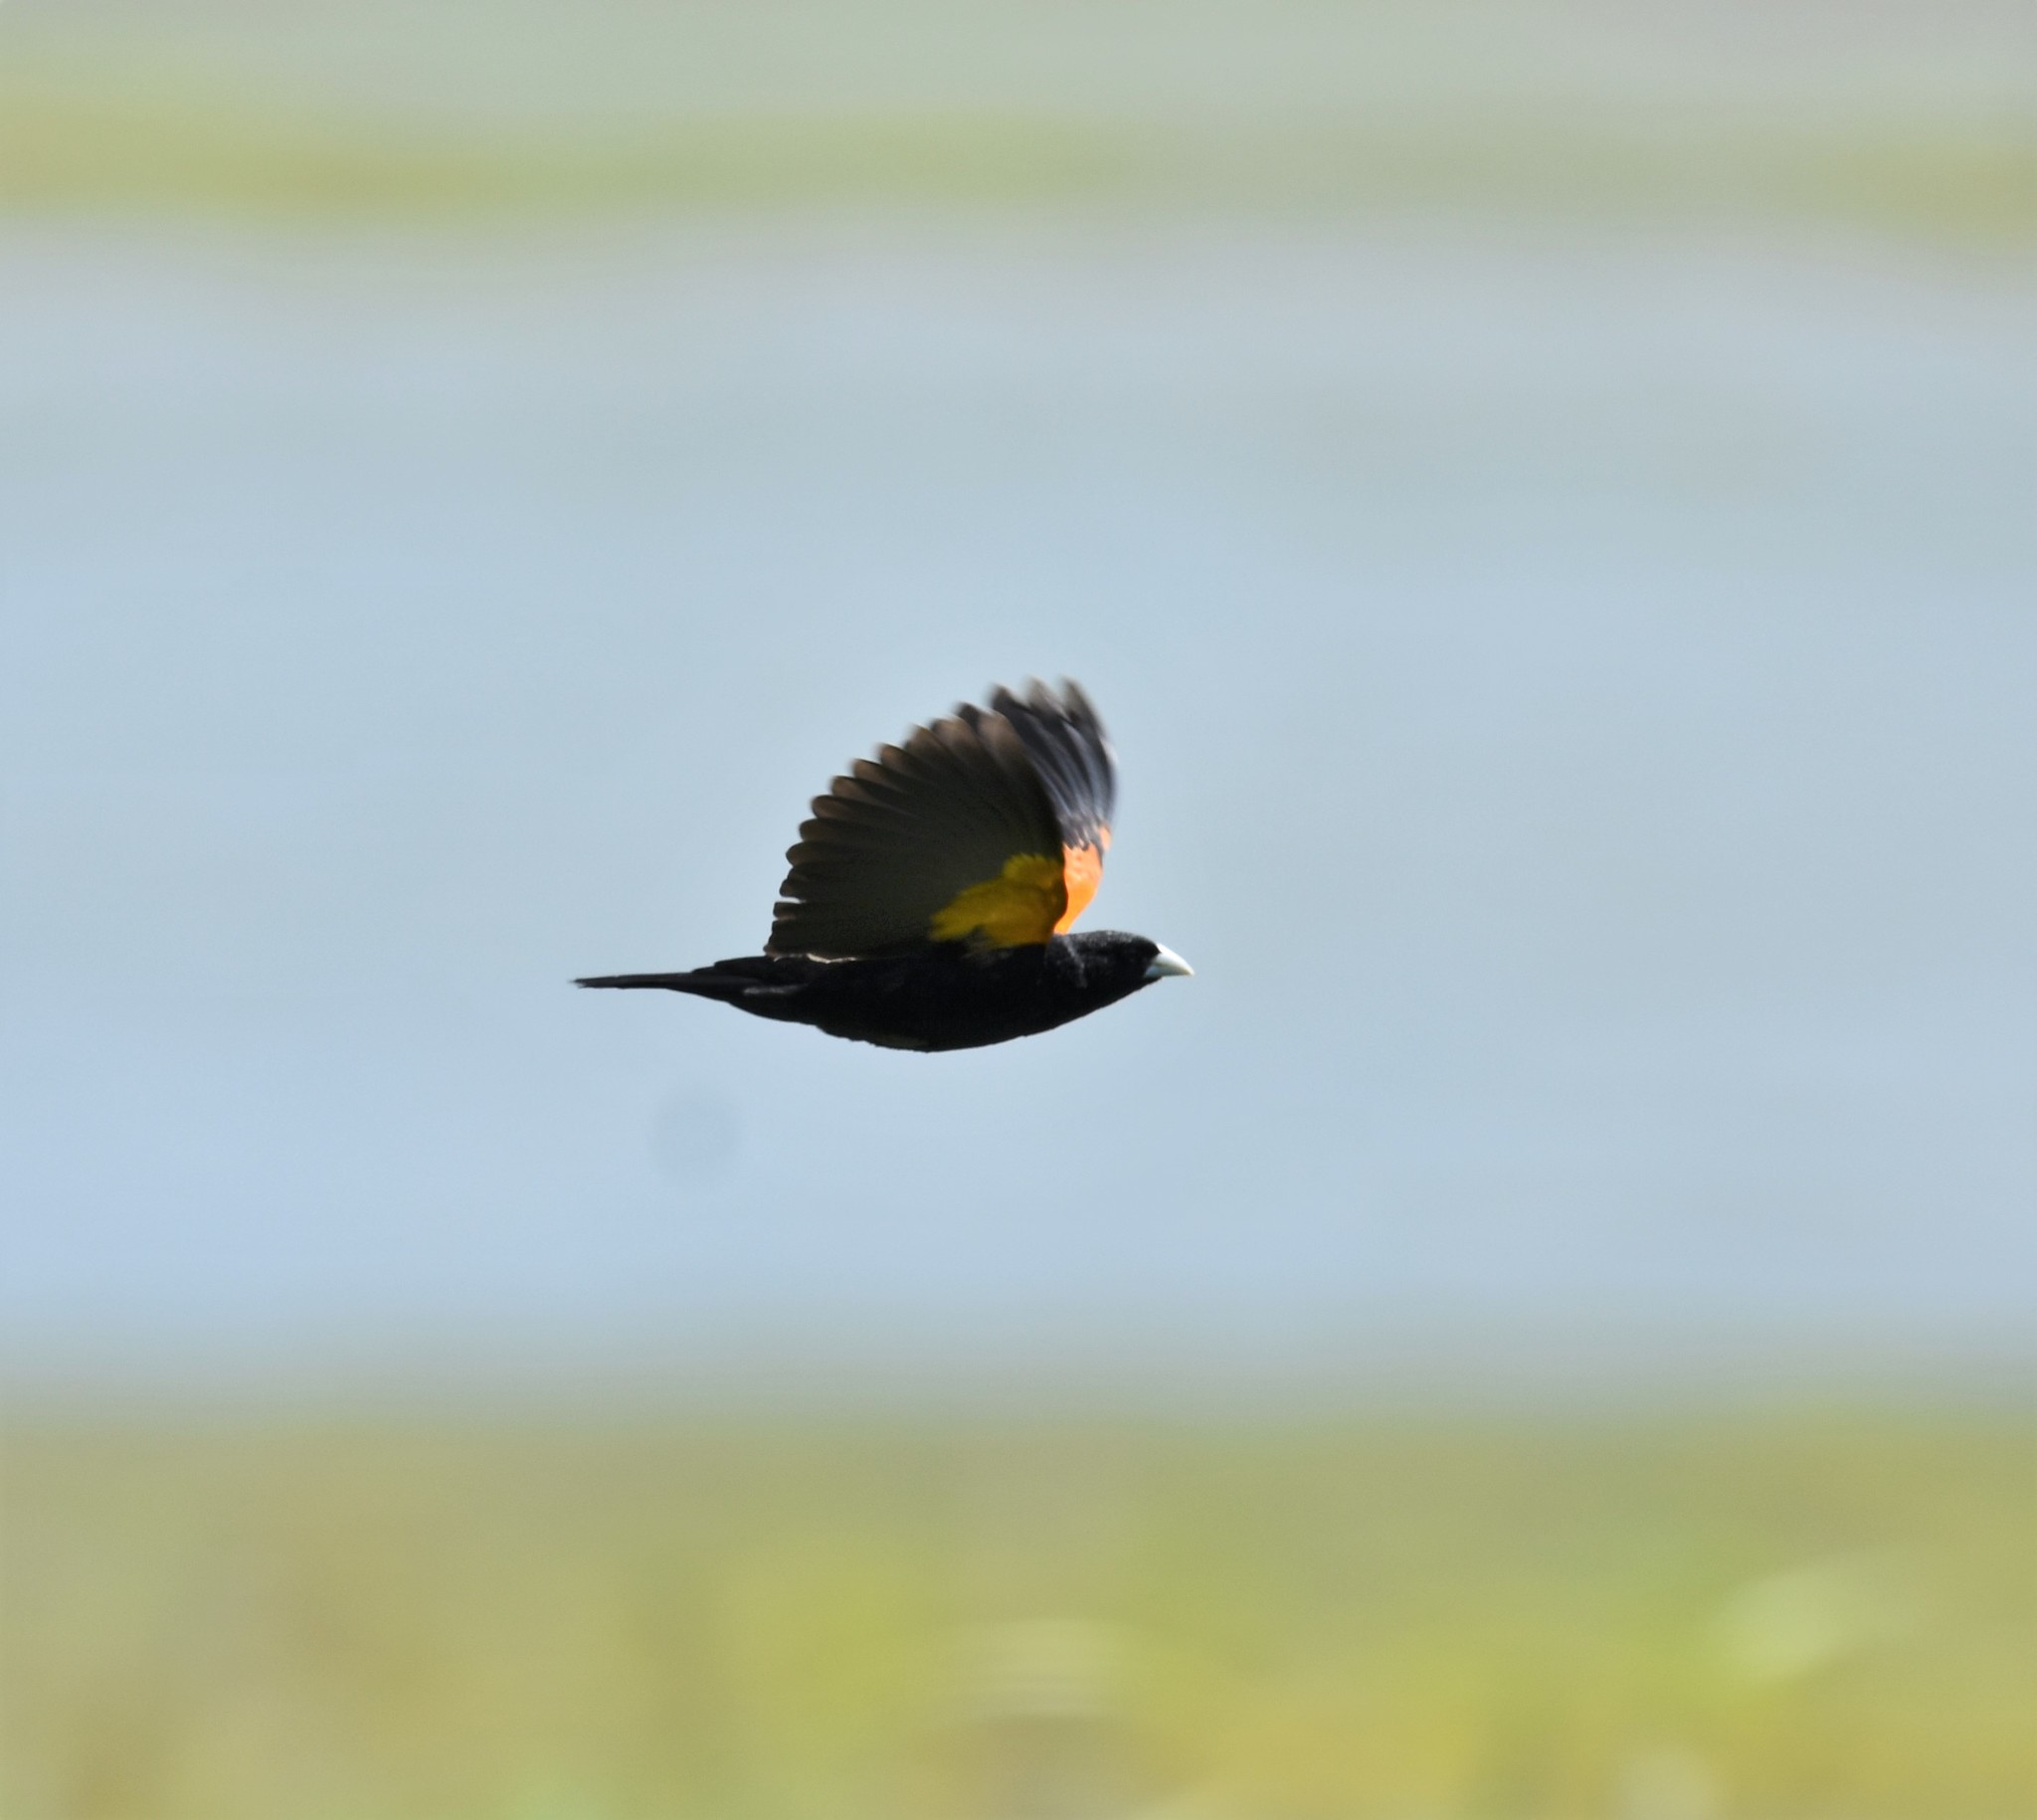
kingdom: Animalia
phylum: Chordata
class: Aves
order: Passeriformes
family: Ploceidae
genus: Euplectes
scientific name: Euplectes axillaris
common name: Fan-tailed widowbird
